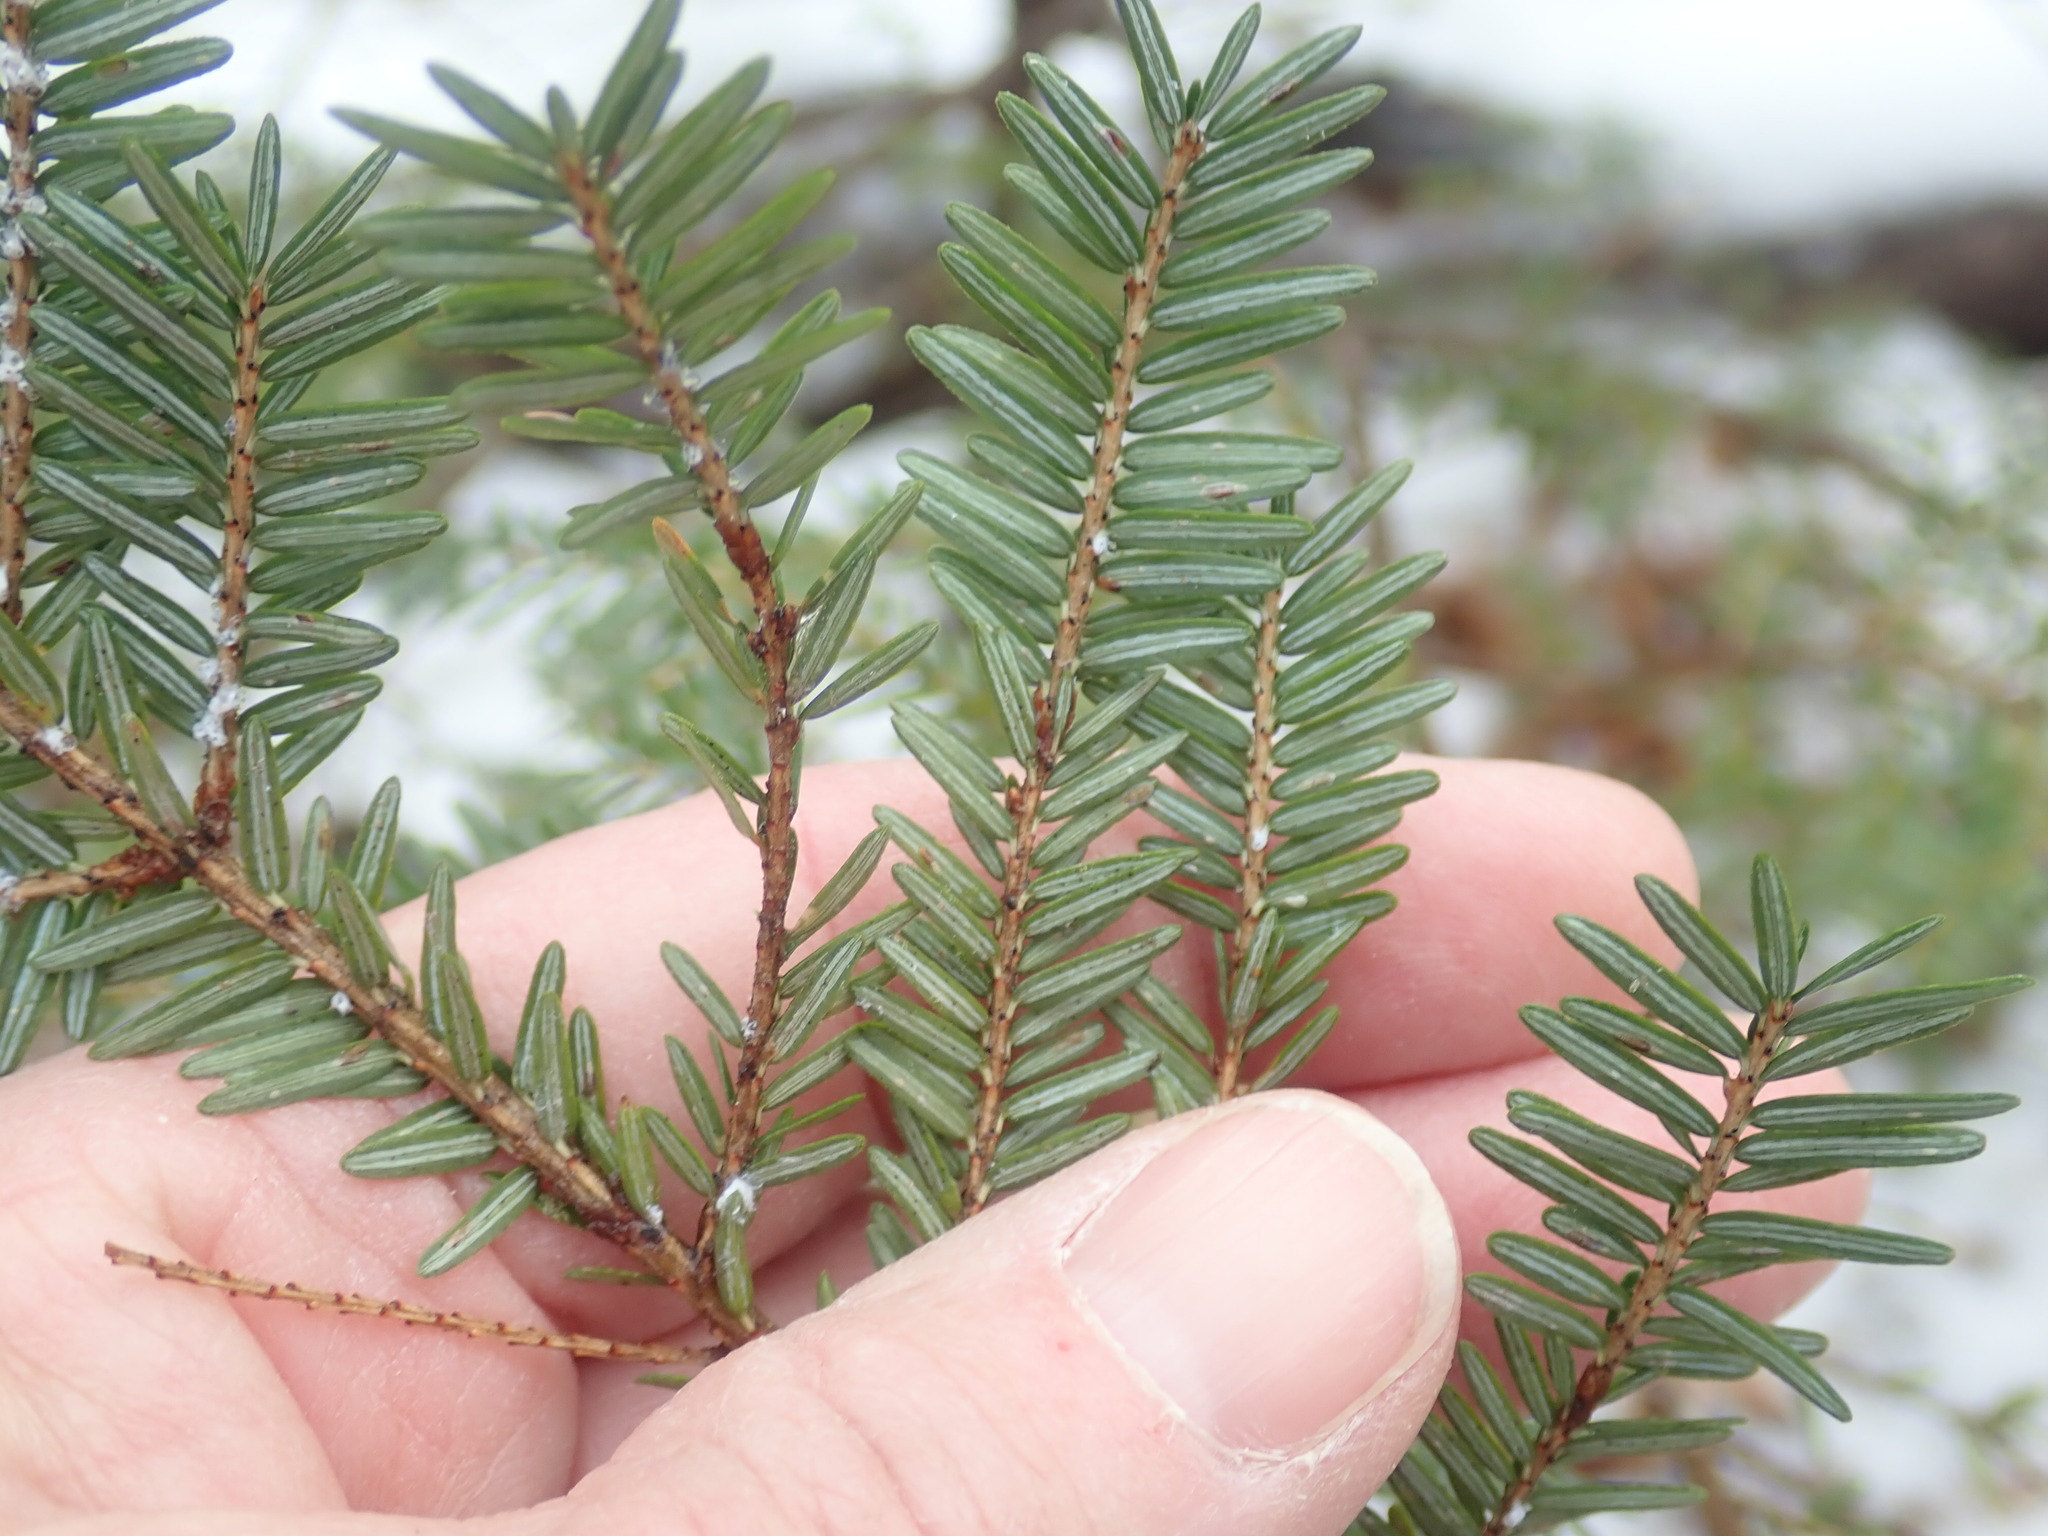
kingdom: Plantae
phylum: Tracheophyta
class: Pinopsida
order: Pinales
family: Pinaceae
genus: Tsuga
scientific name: Tsuga canadensis
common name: Eastern hemlock
